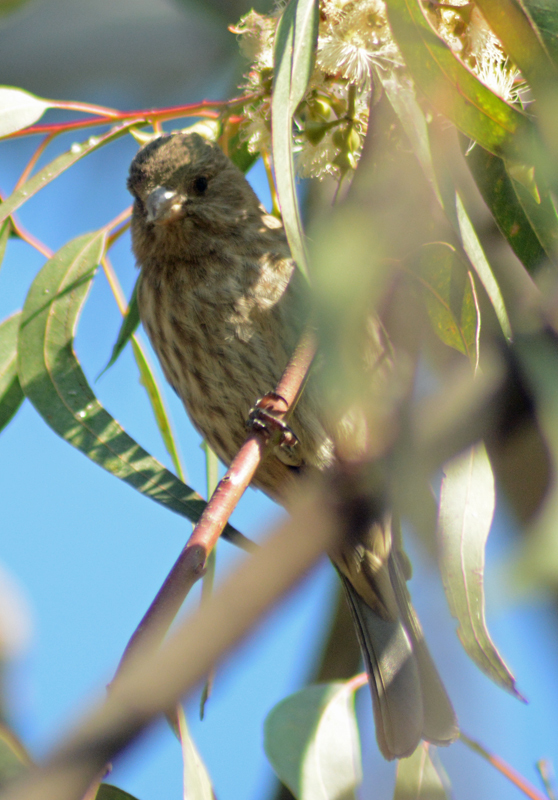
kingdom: Animalia
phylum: Chordata
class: Aves
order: Passeriformes
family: Fringillidae
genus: Haemorhous
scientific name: Haemorhous mexicanus
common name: House finch
